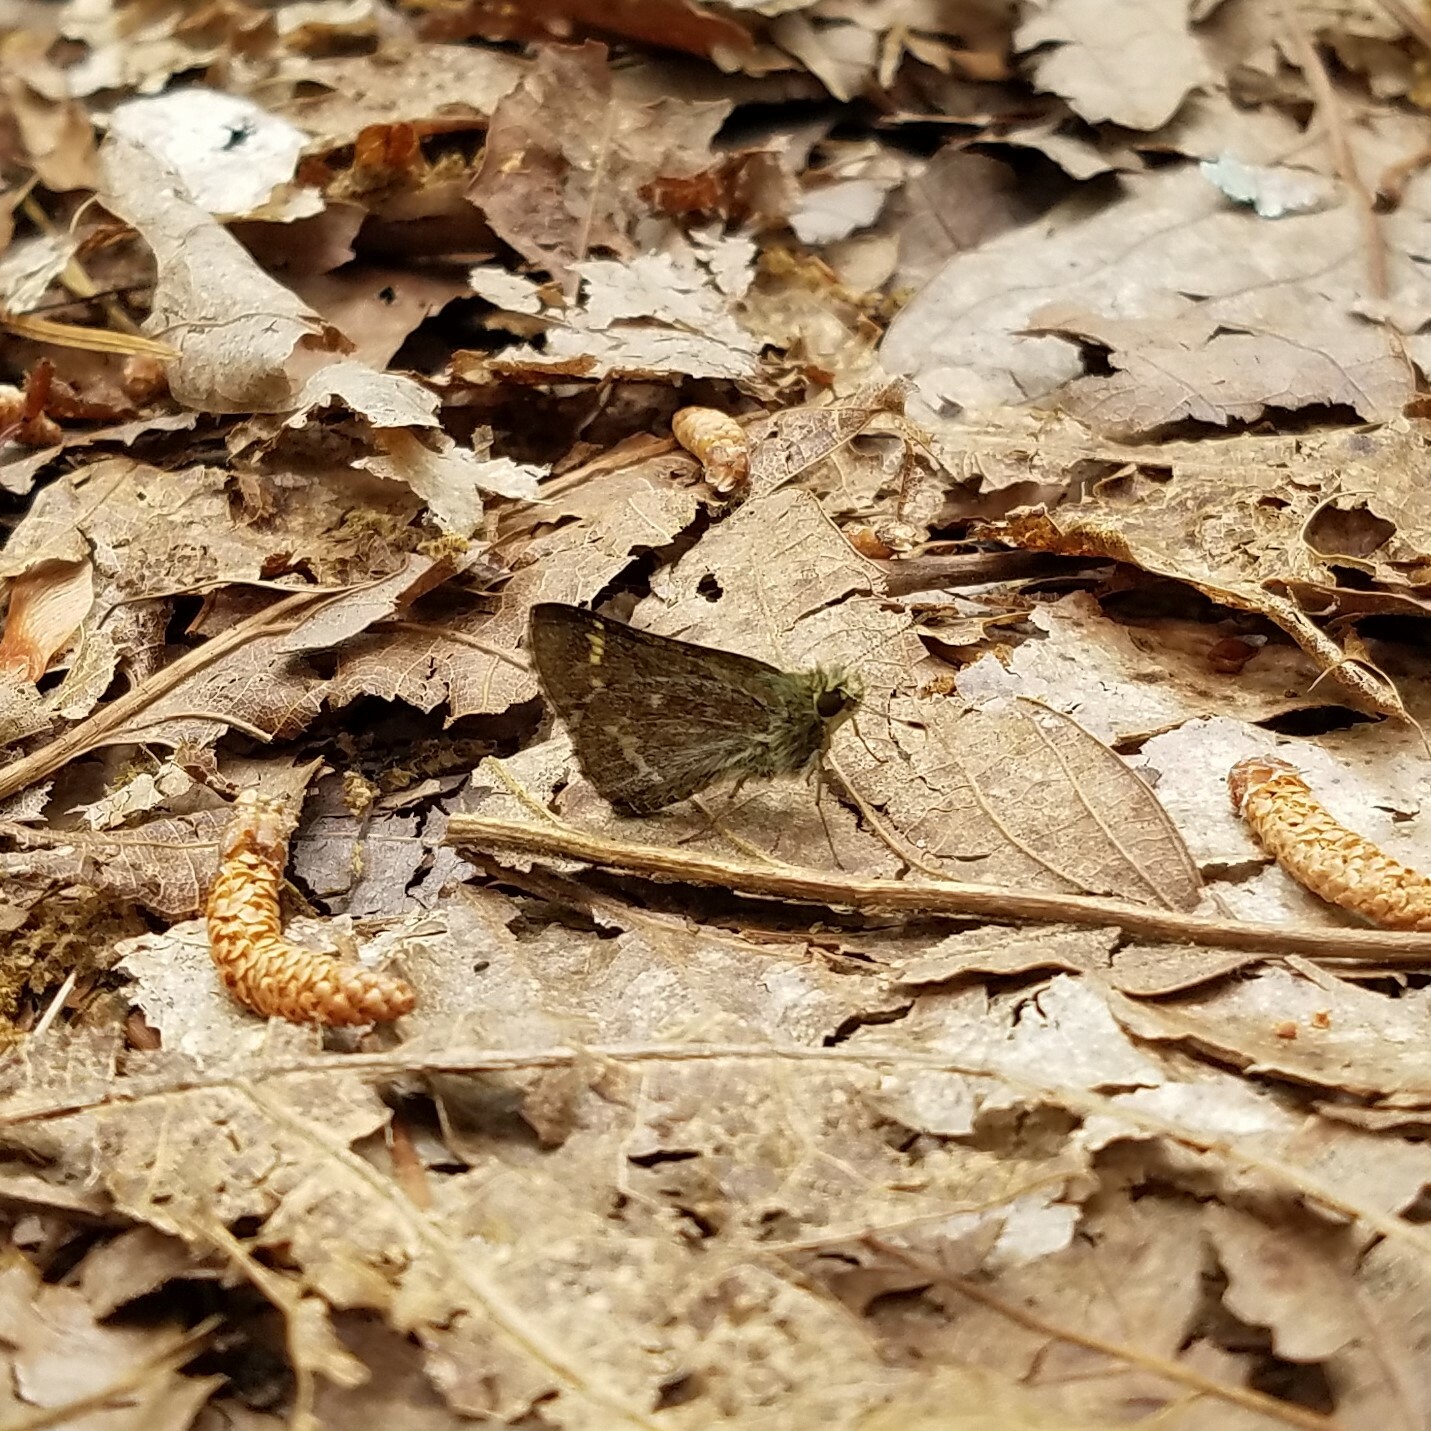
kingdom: Animalia
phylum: Arthropoda
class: Insecta
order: Lepidoptera
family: Hesperiidae
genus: Mastor
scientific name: Mastor hegon
